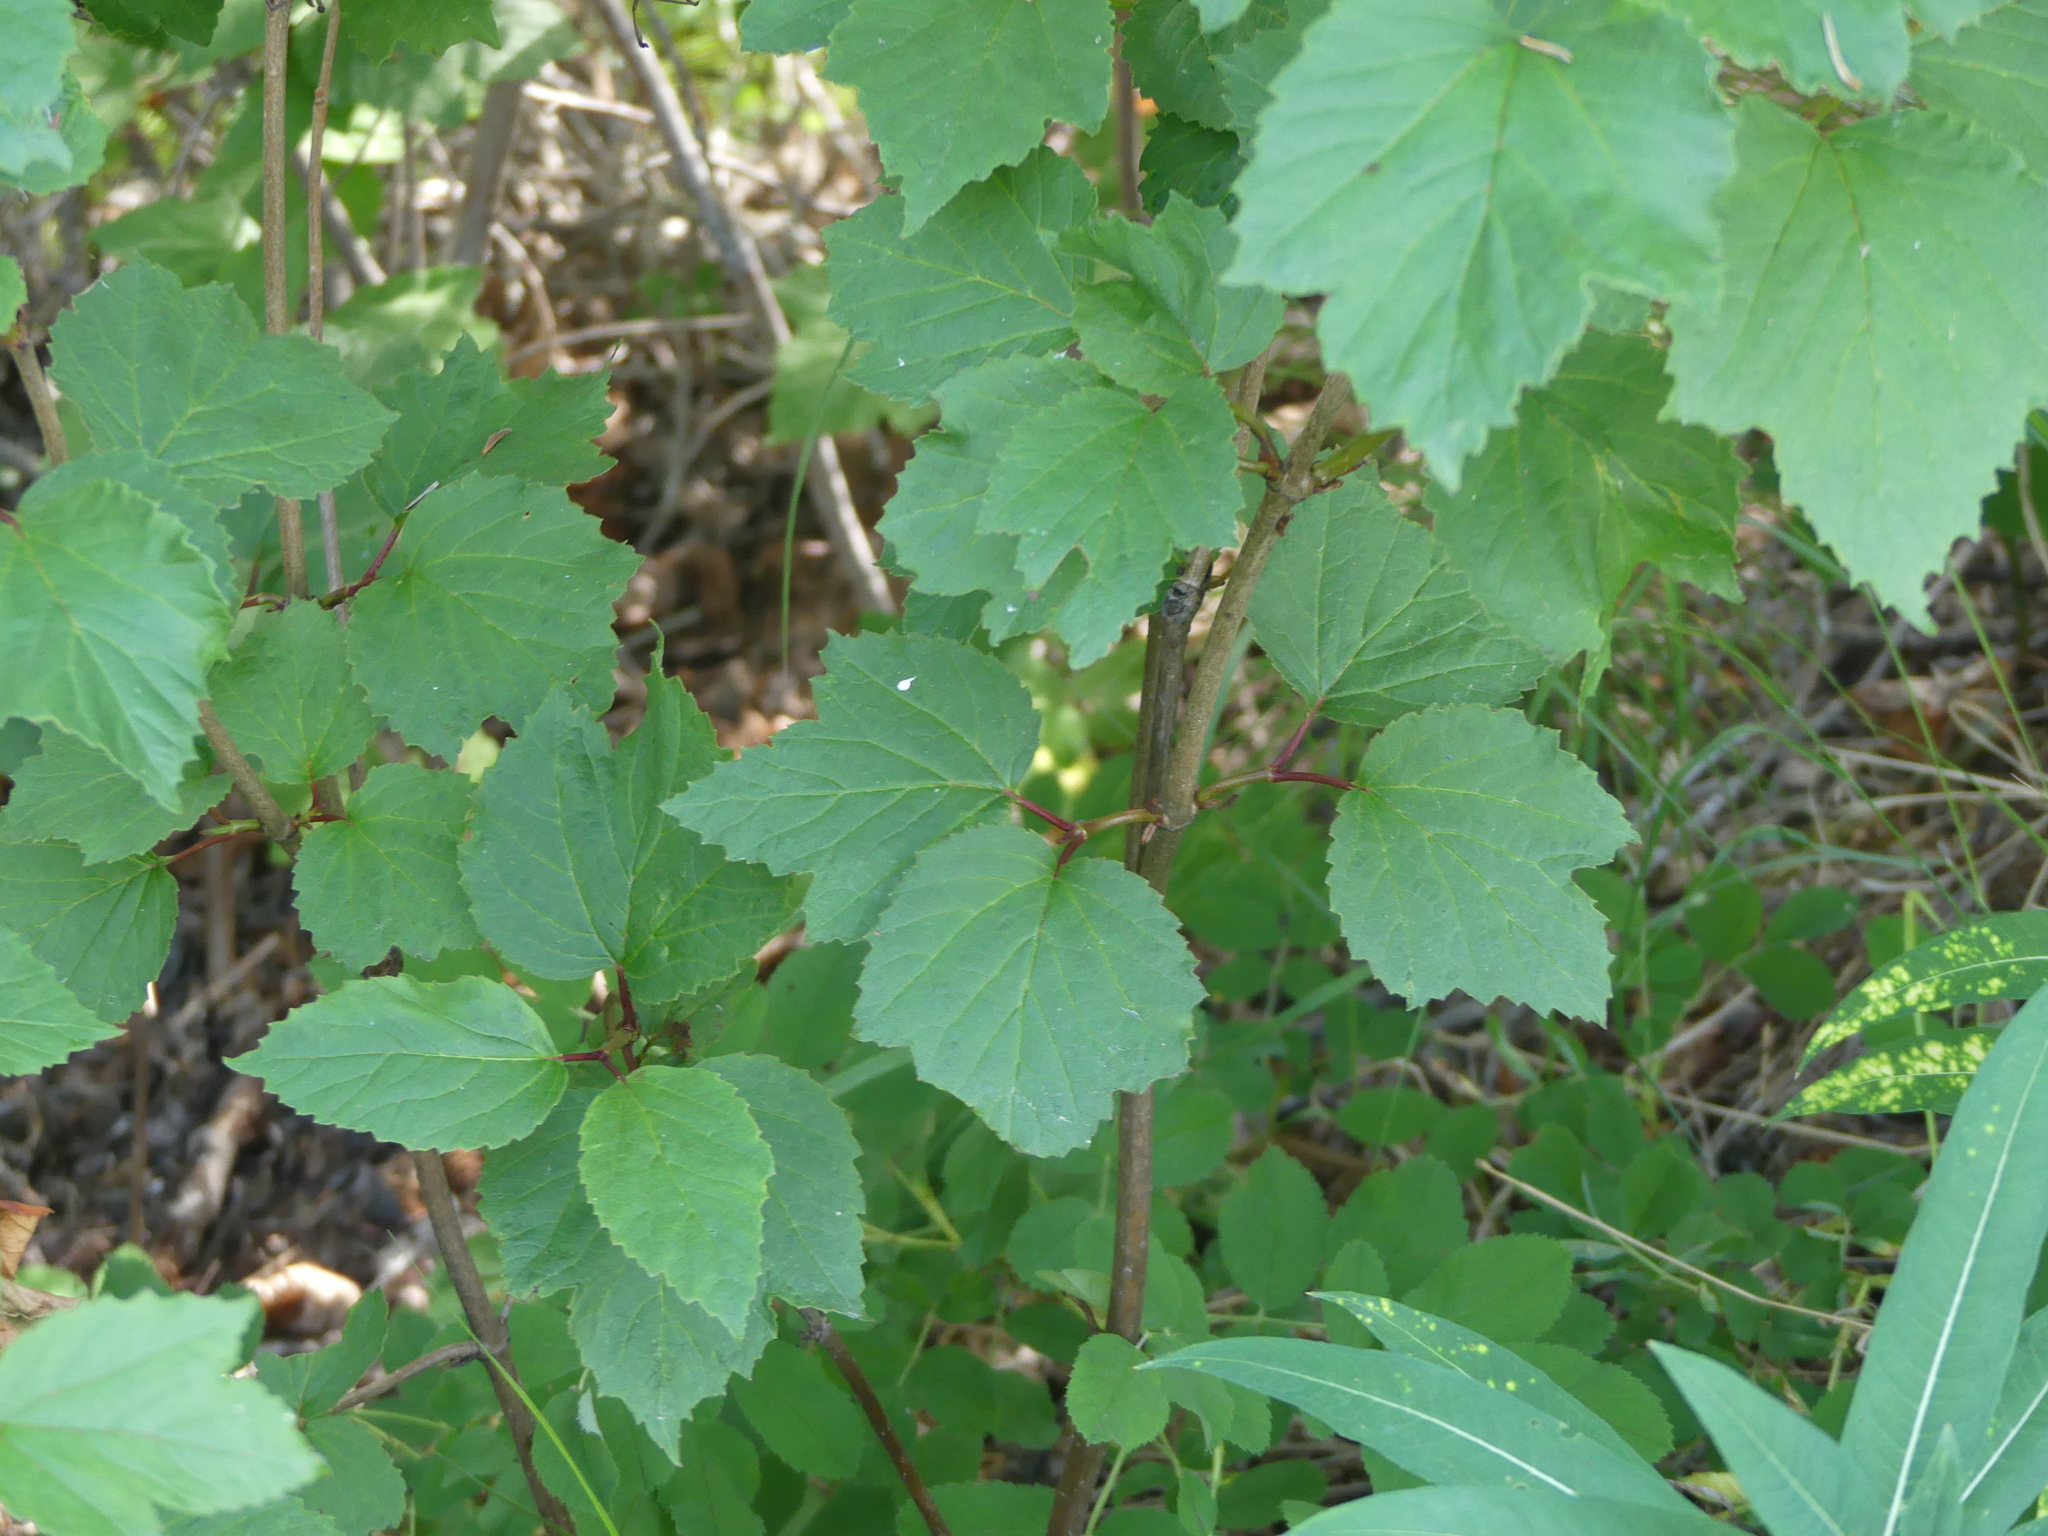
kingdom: Plantae
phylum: Tracheophyta
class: Magnoliopsida
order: Dipsacales
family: Viburnaceae
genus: Viburnum
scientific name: Viburnum edule
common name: Mooseberry
